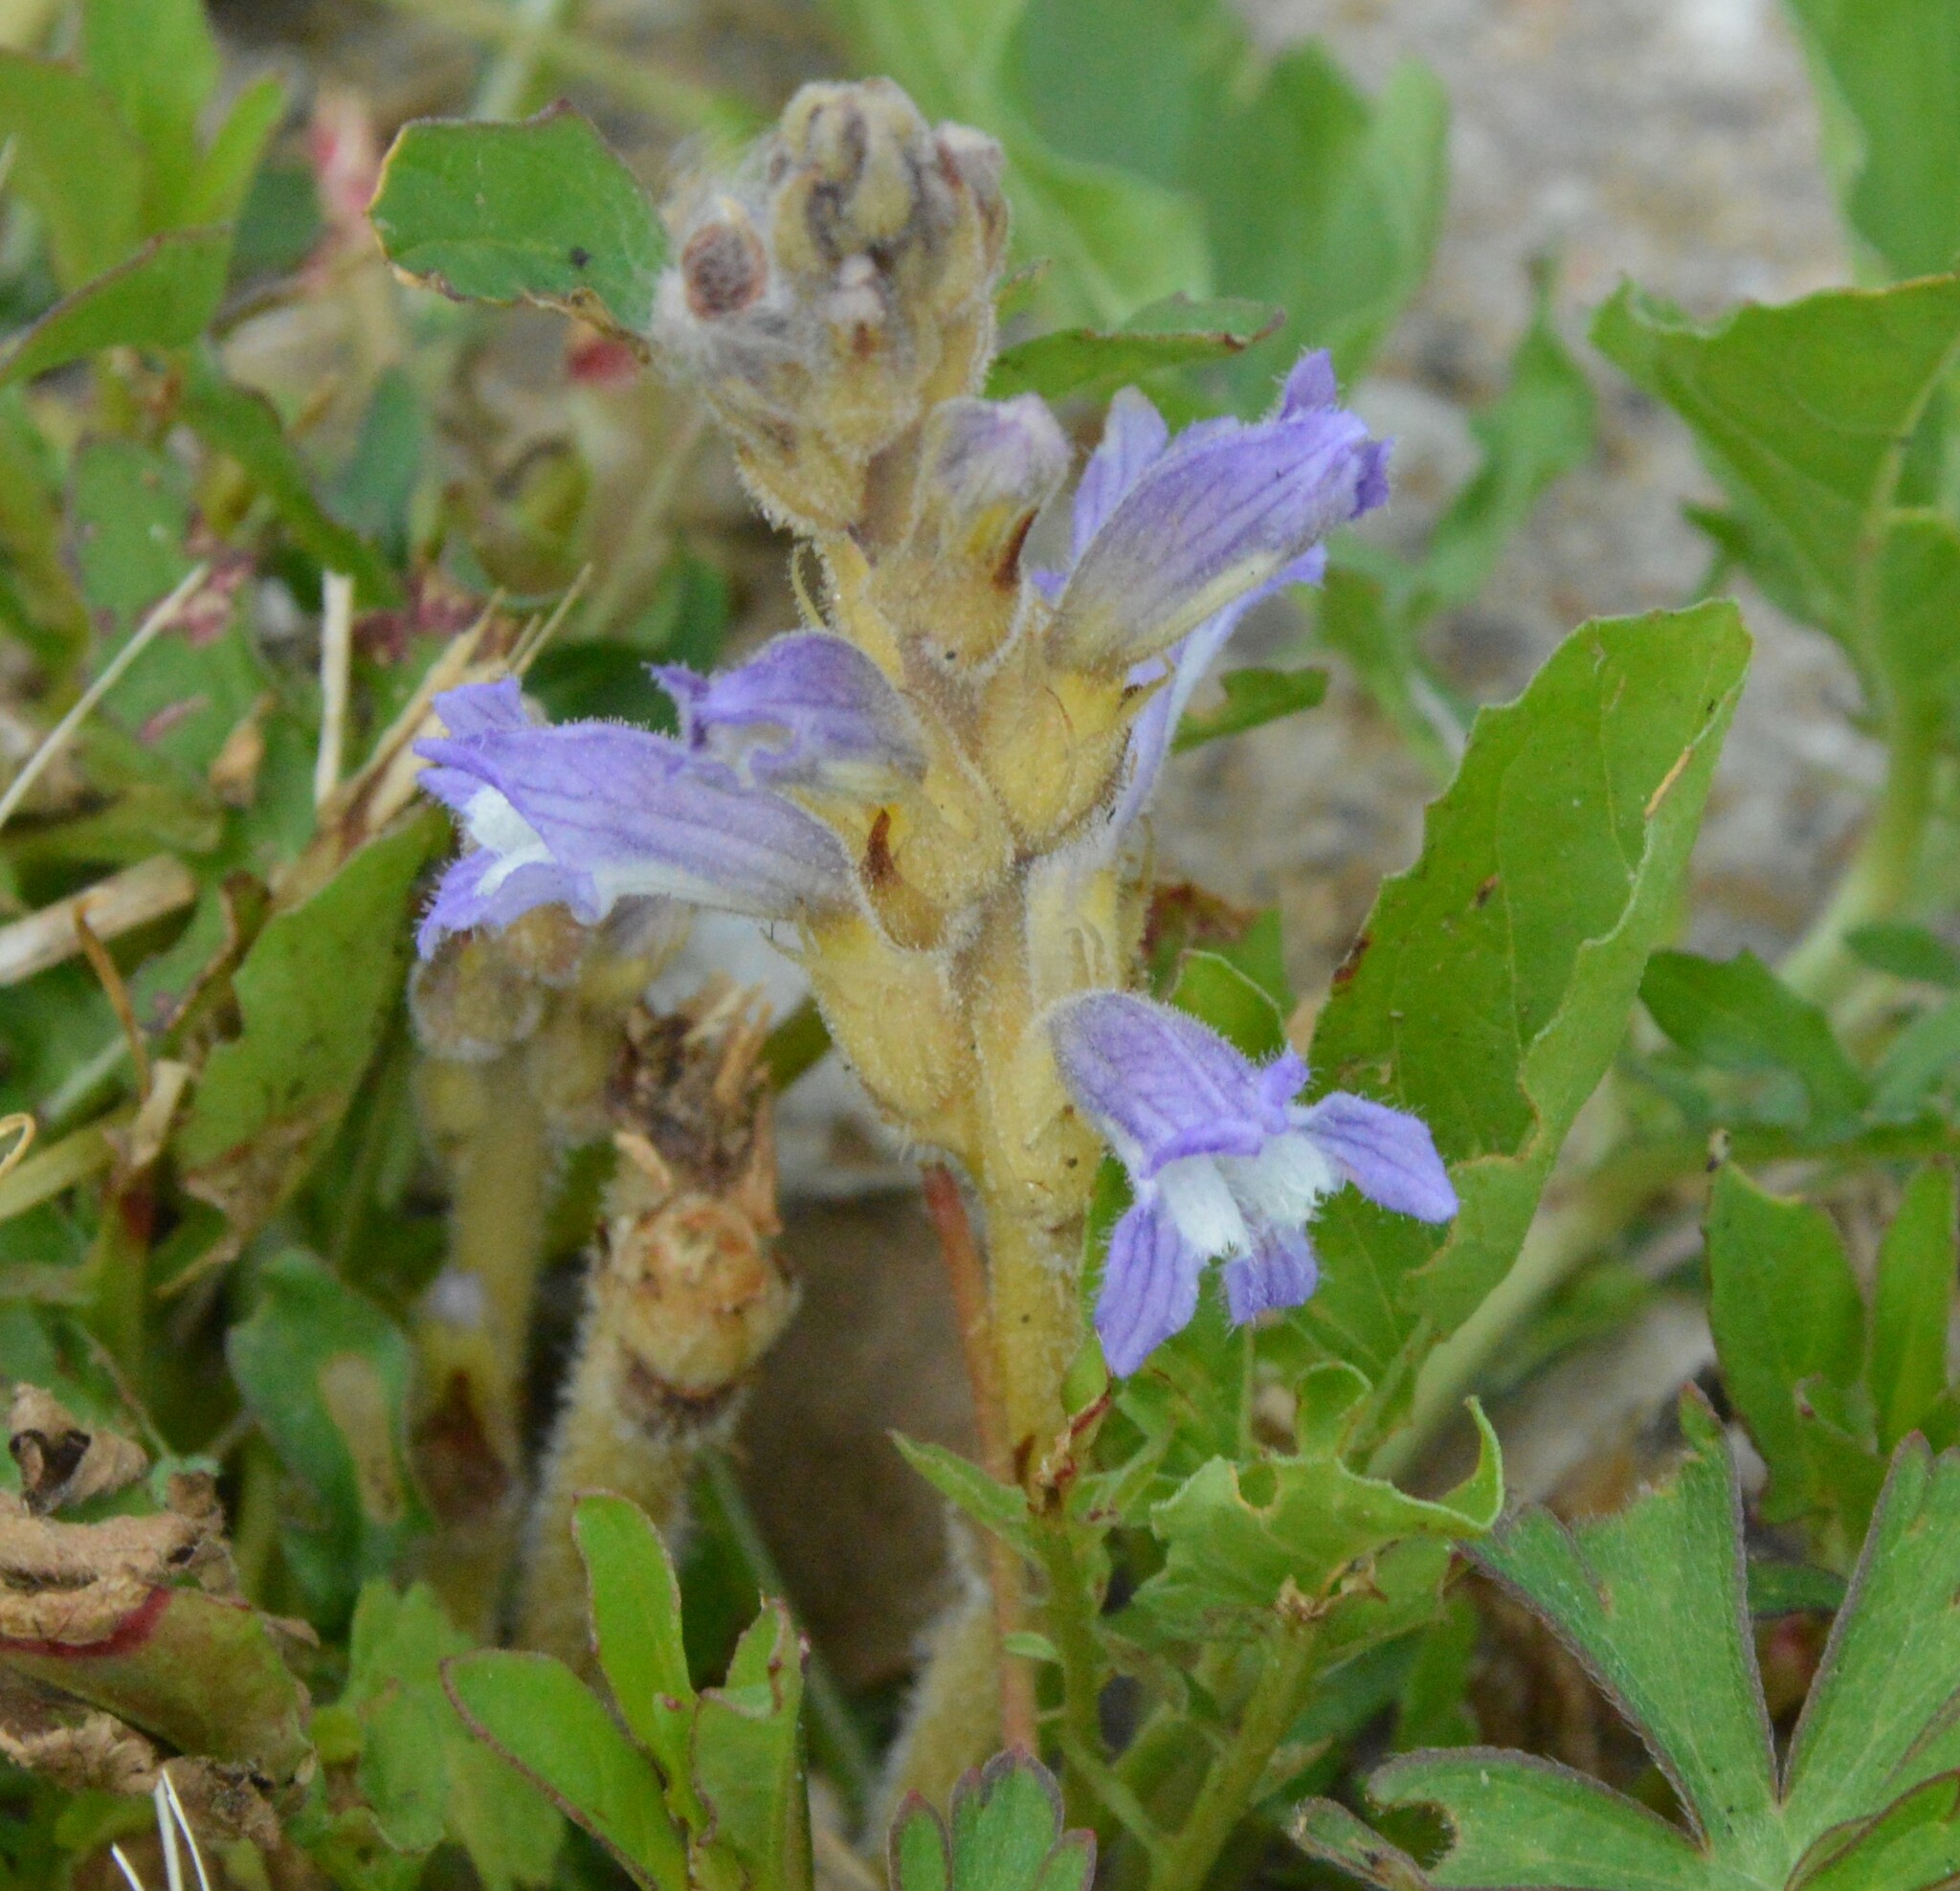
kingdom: Plantae
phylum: Tracheophyta
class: Magnoliopsida
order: Lamiales
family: Orobanchaceae
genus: Phelipanche
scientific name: Phelipanche mutelii
